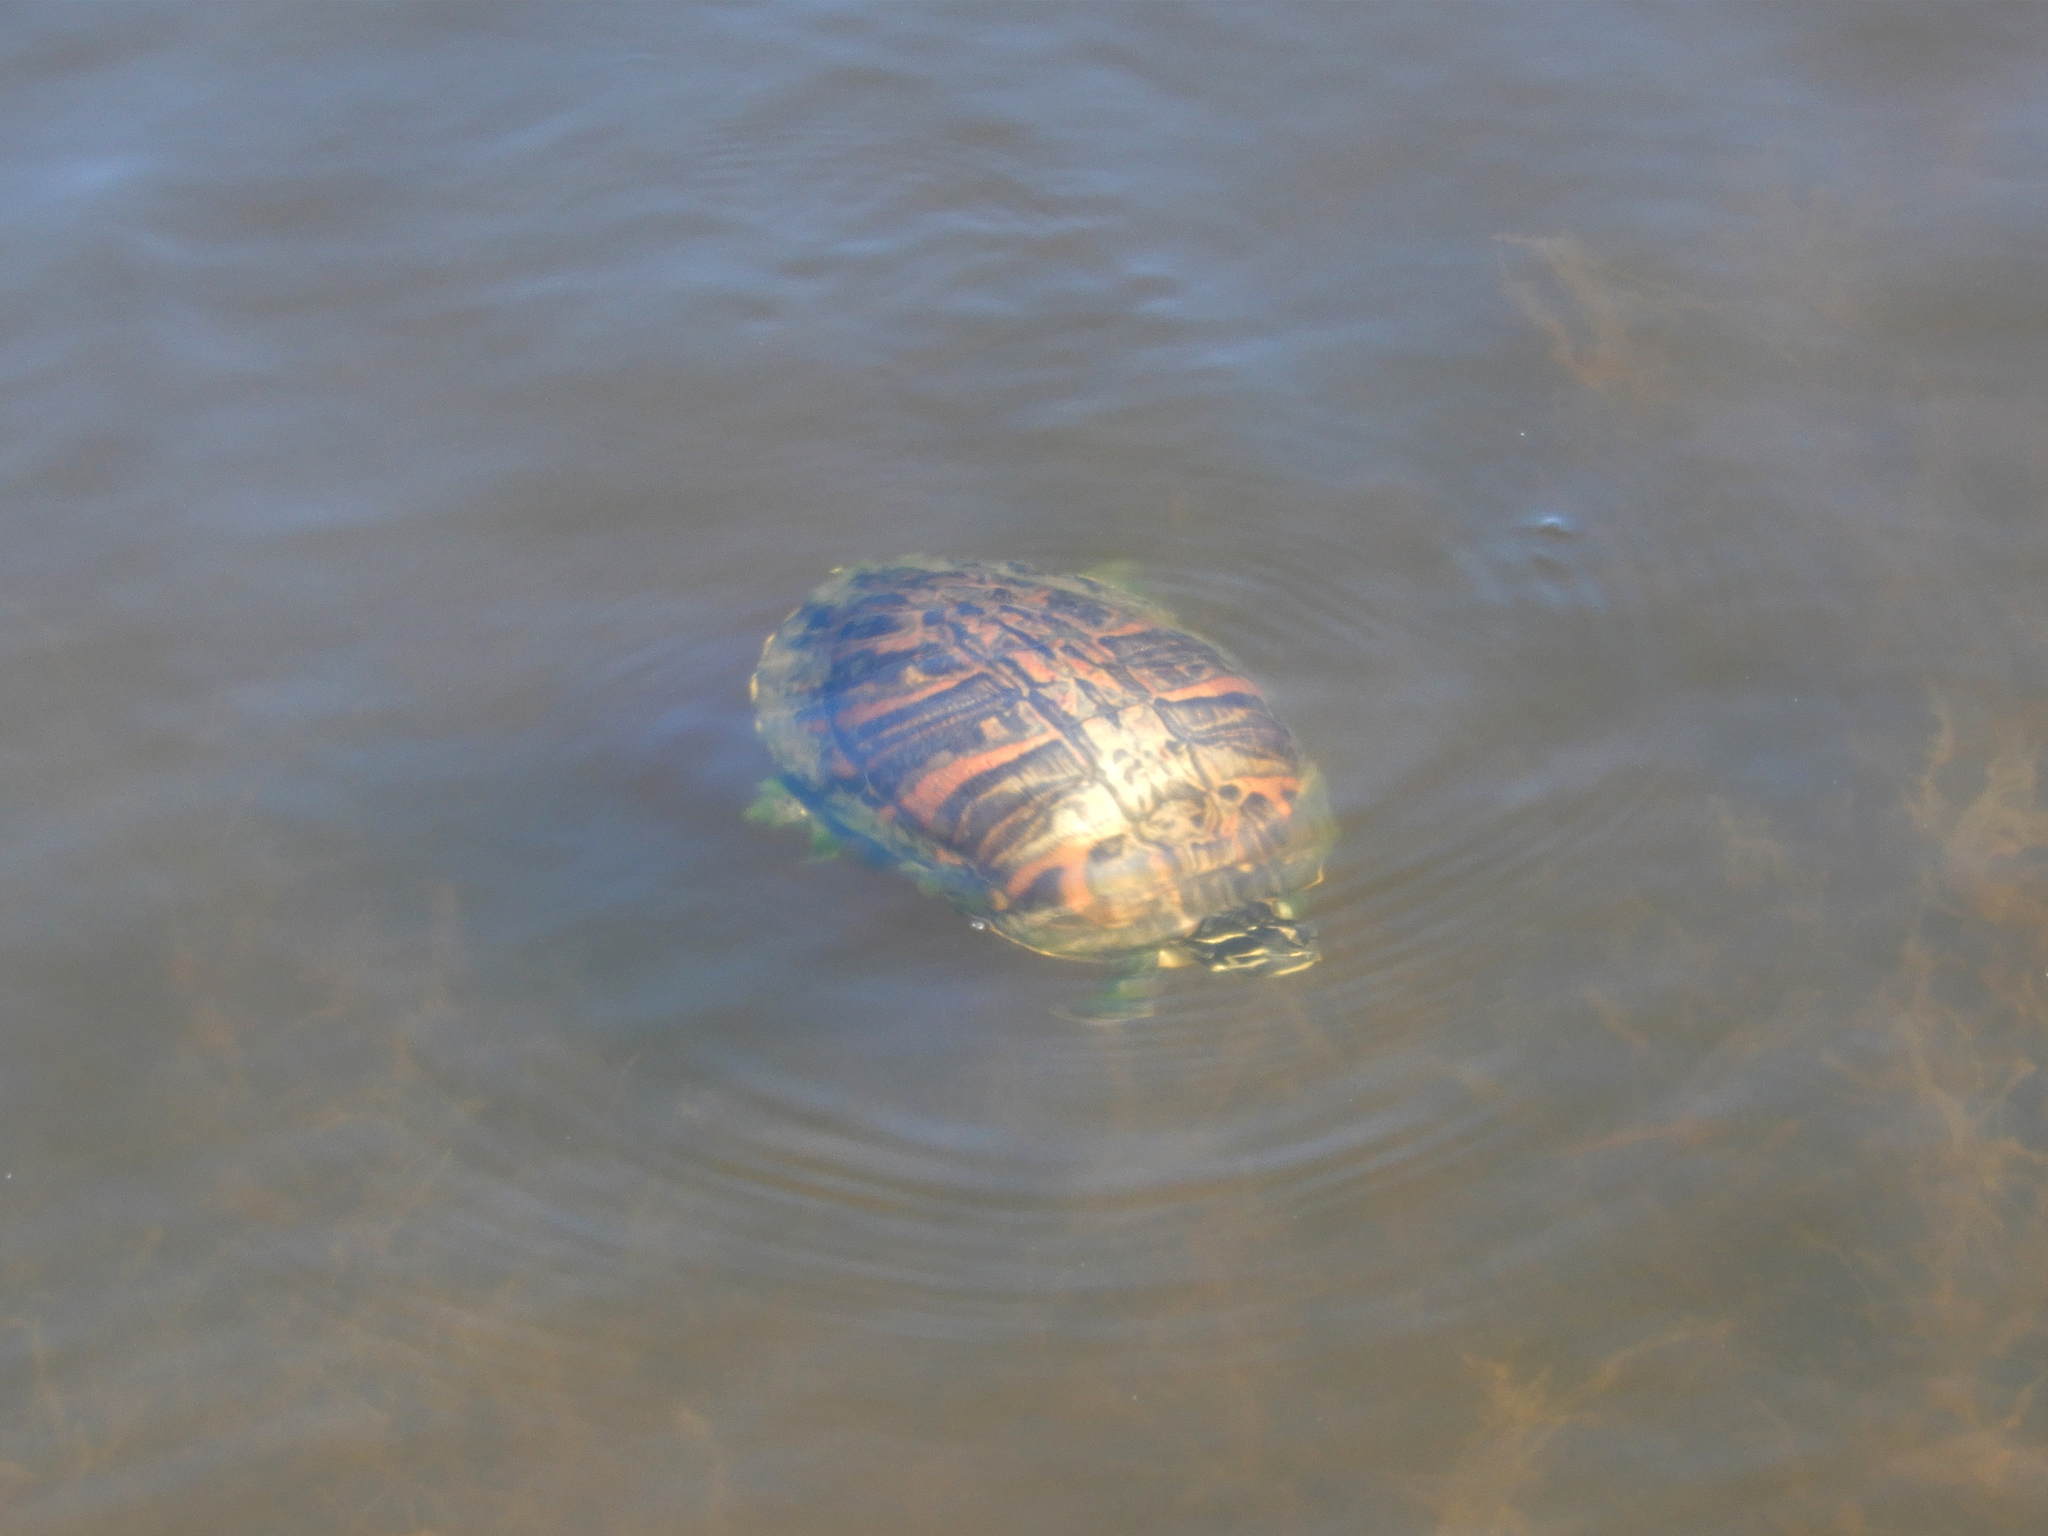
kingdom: Animalia
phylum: Chordata
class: Testudines
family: Emydidae
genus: Pseudemys
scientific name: Pseudemys nelsoni
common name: Florida red-bellied turtle
